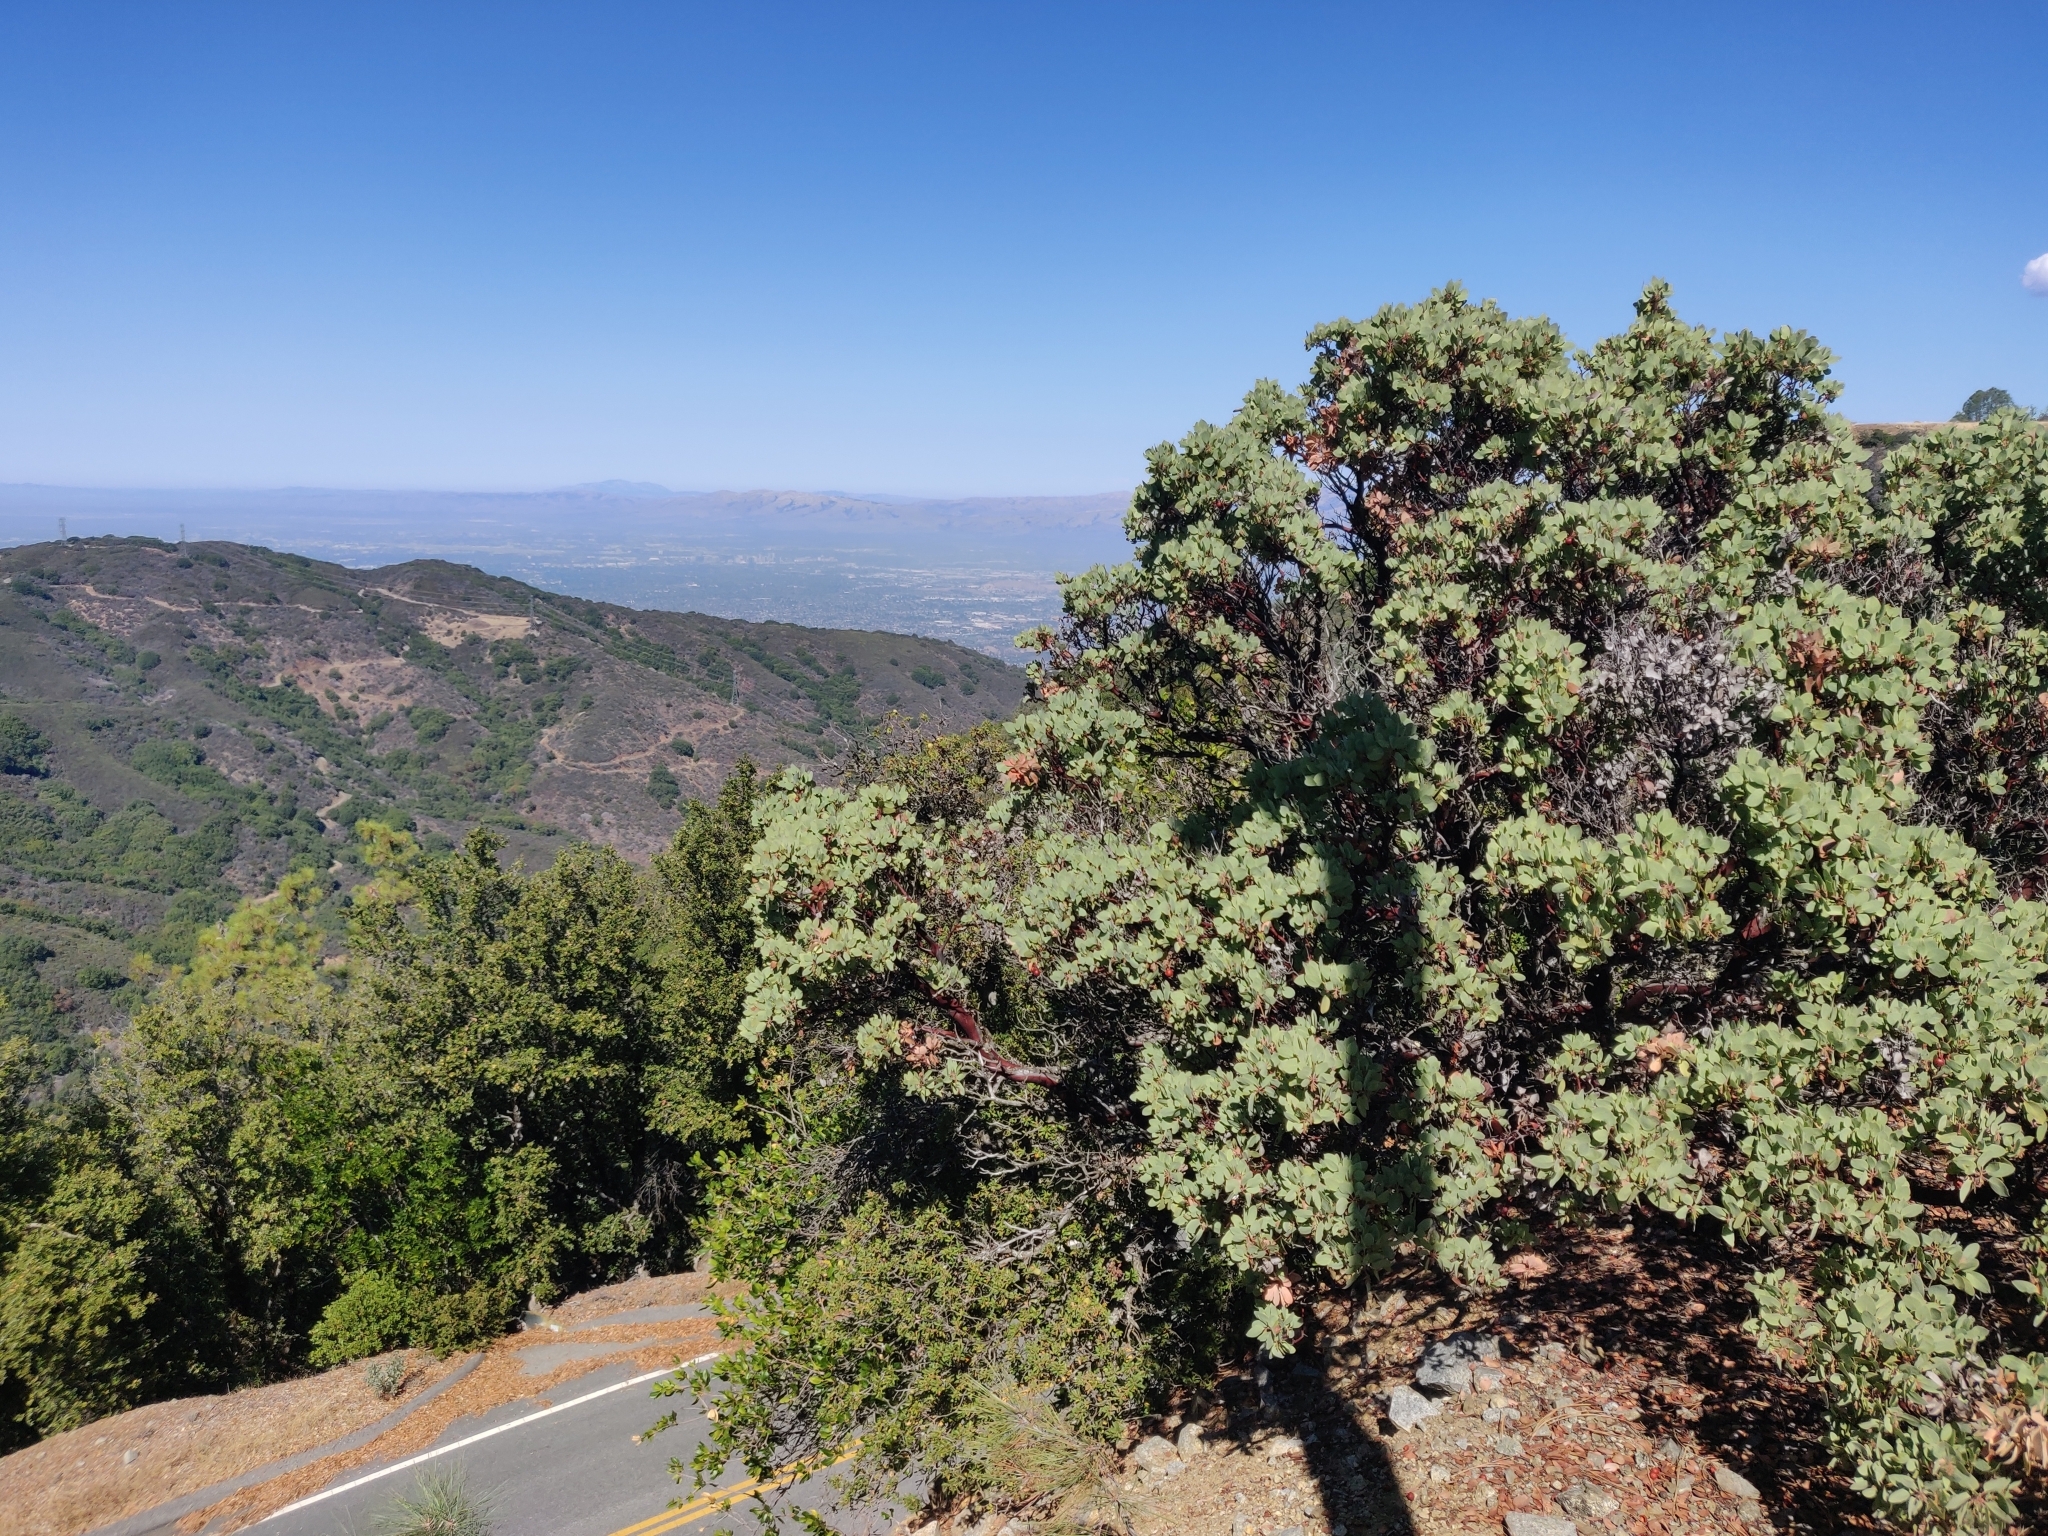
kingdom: Plantae
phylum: Tracheophyta
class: Magnoliopsida
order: Ericales
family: Ericaceae
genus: Arctostaphylos
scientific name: Arctostaphylos glauca
